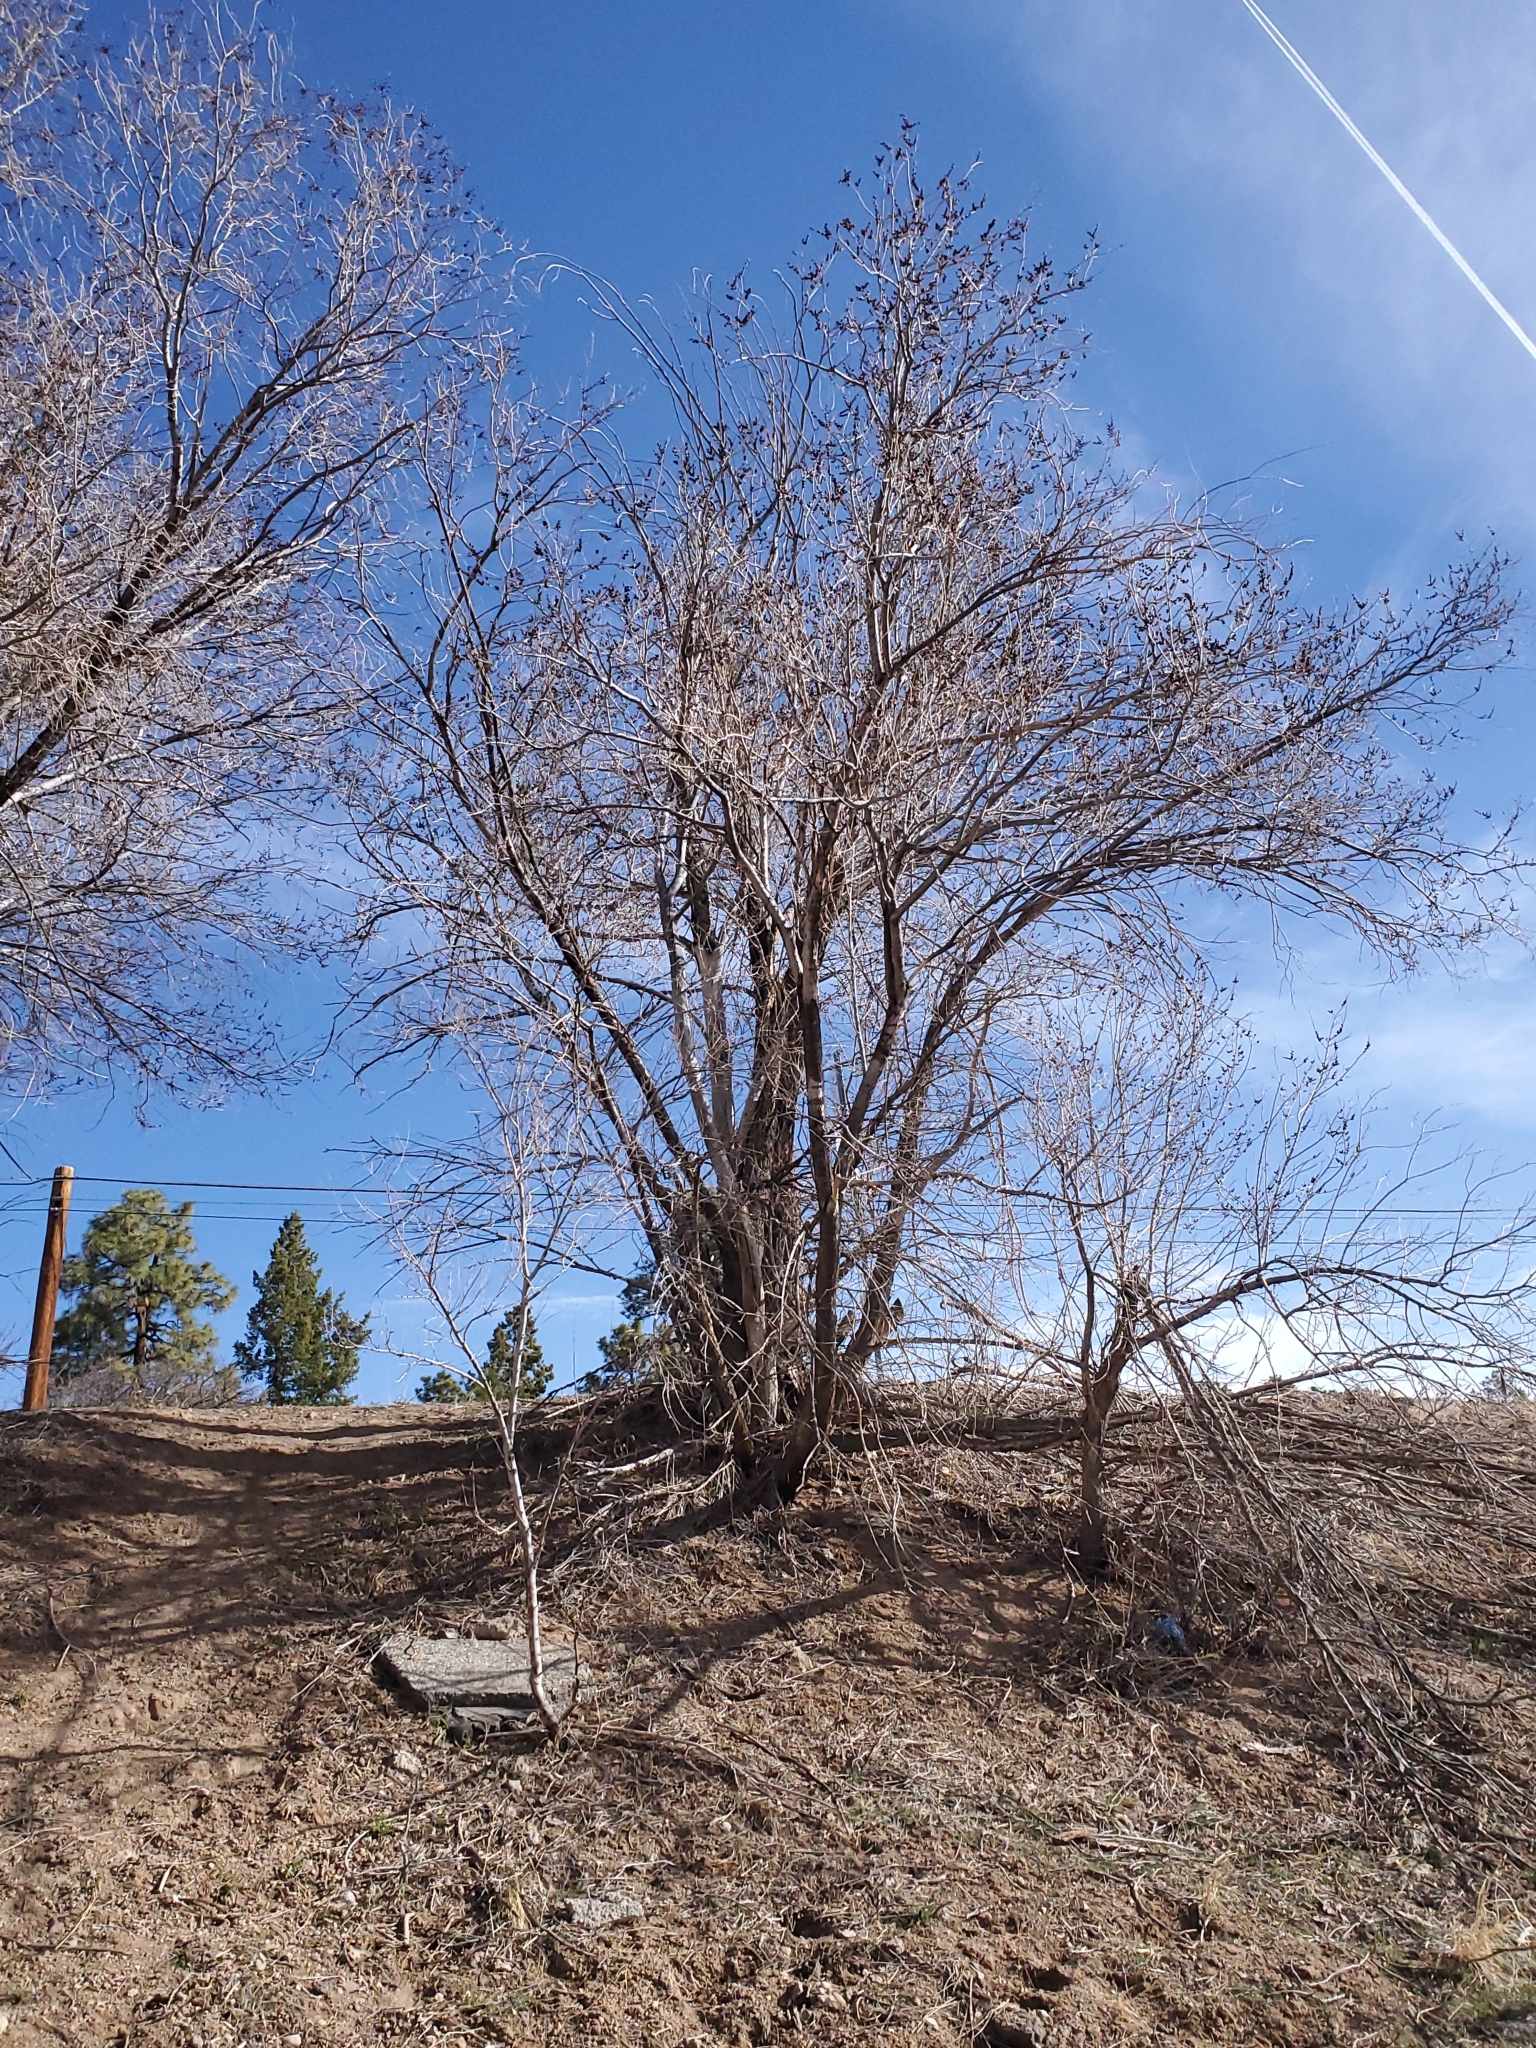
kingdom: Plantae
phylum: Tracheophyta
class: Magnoliopsida
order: Rosales
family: Ulmaceae
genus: Ulmus
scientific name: Ulmus pumila
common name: Siberian elm
